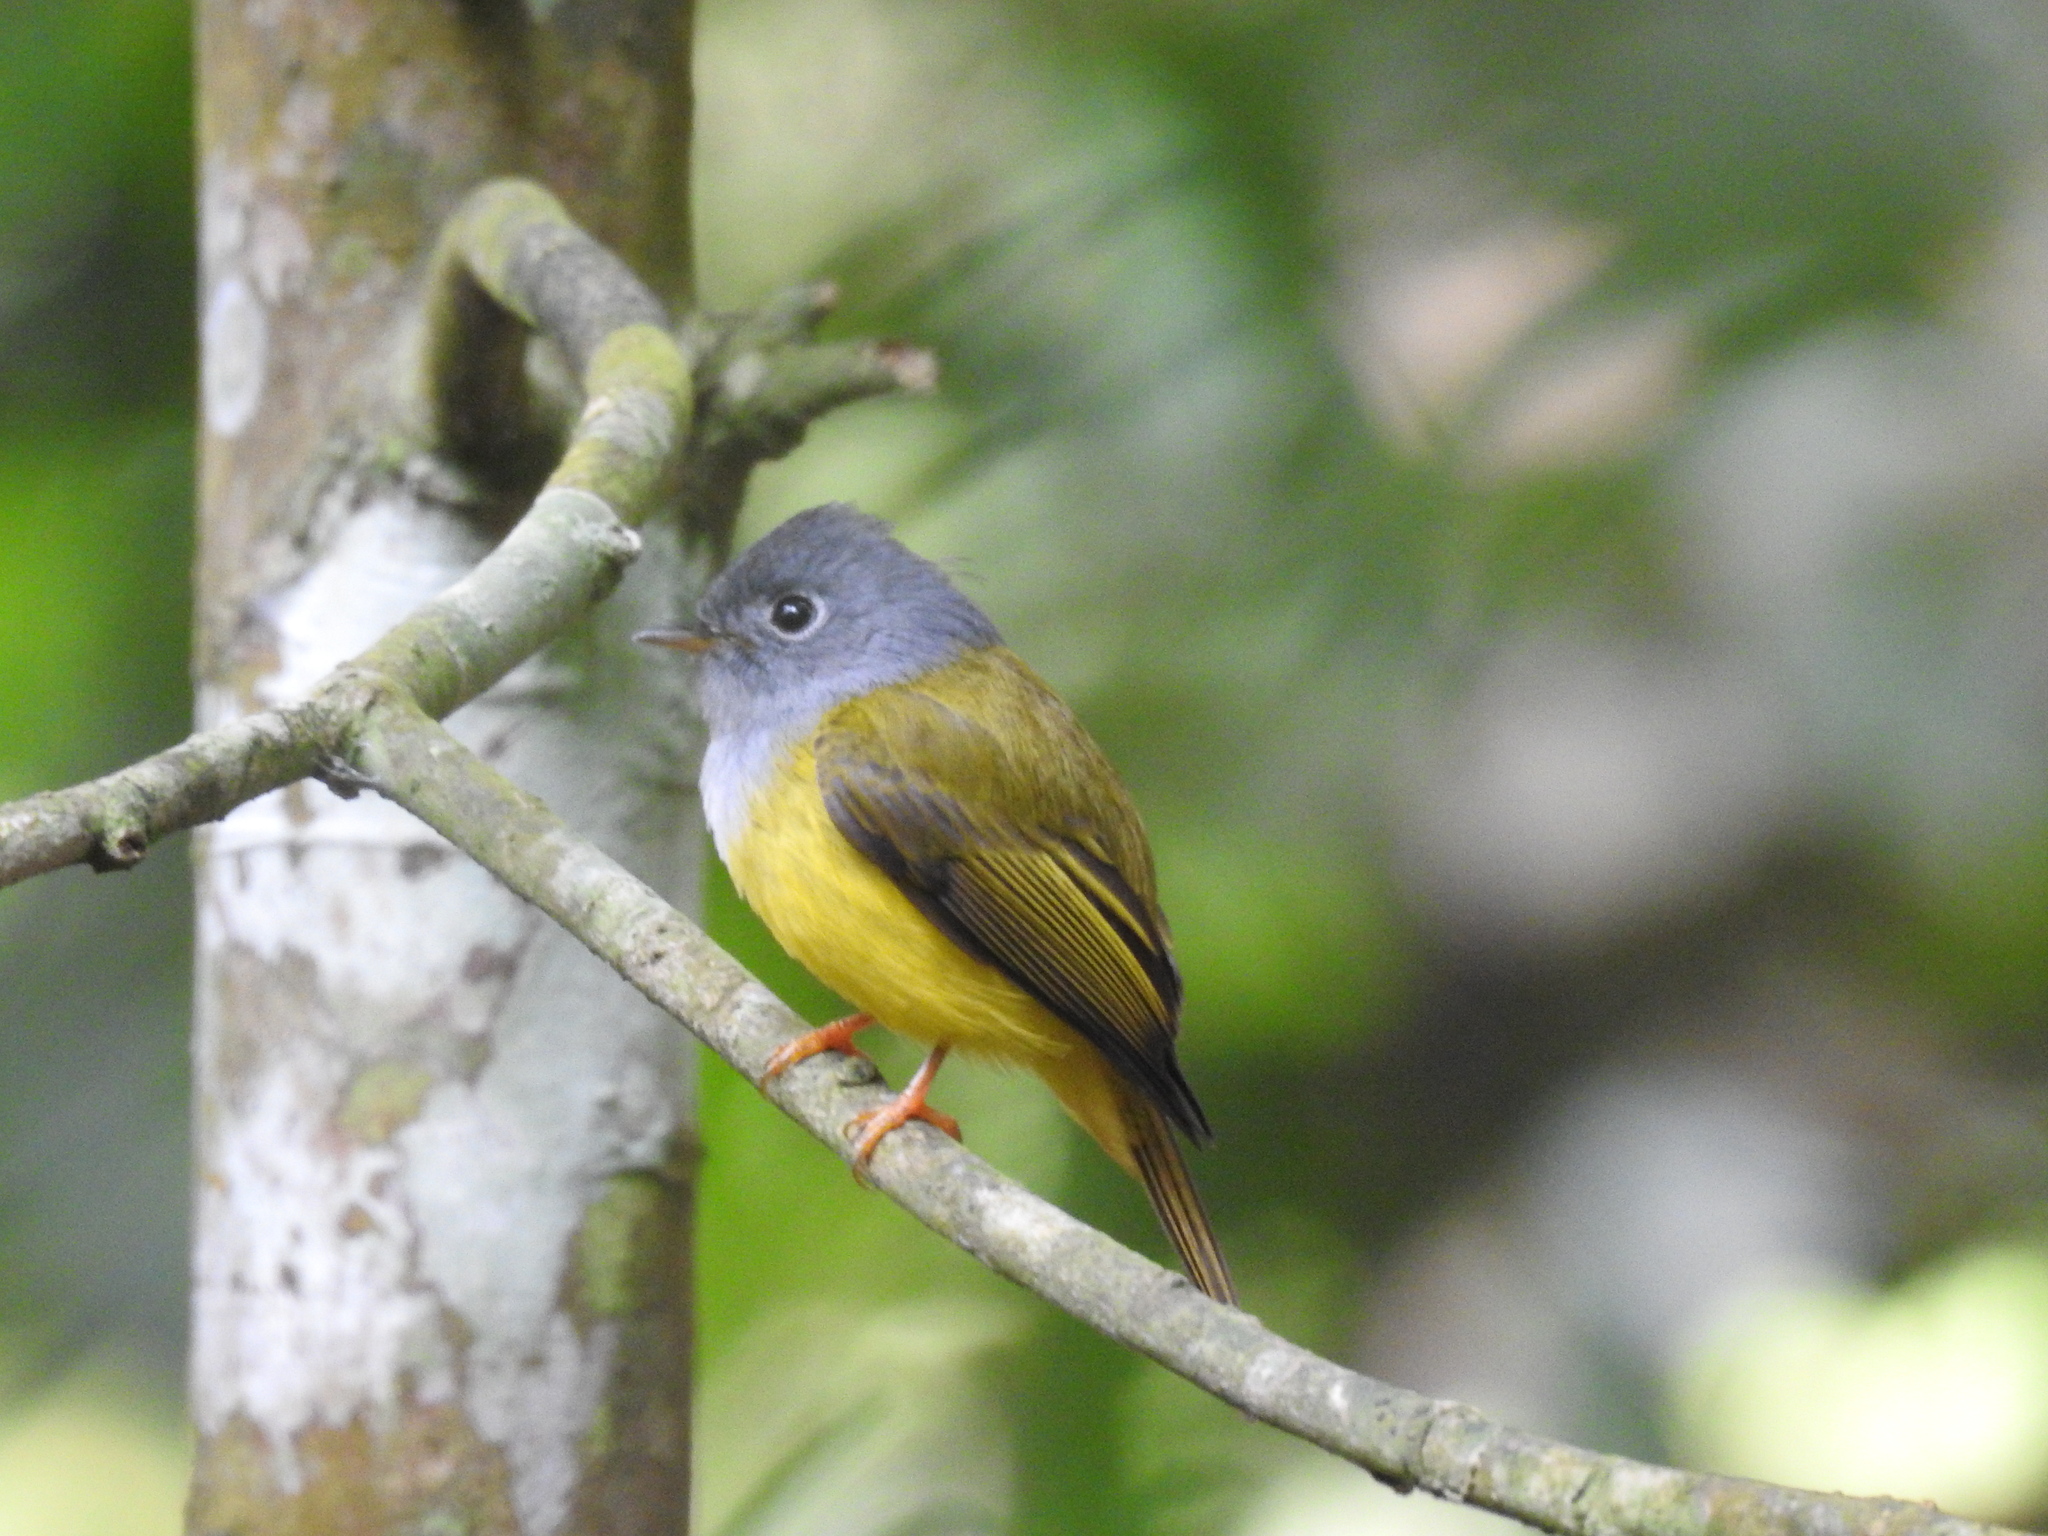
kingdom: Animalia
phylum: Chordata
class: Aves
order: Passeriformes
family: Stenostiridae
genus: Culicicapa
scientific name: Culicicapa ceylonensis
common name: Grey-headed canary-flycatcher
